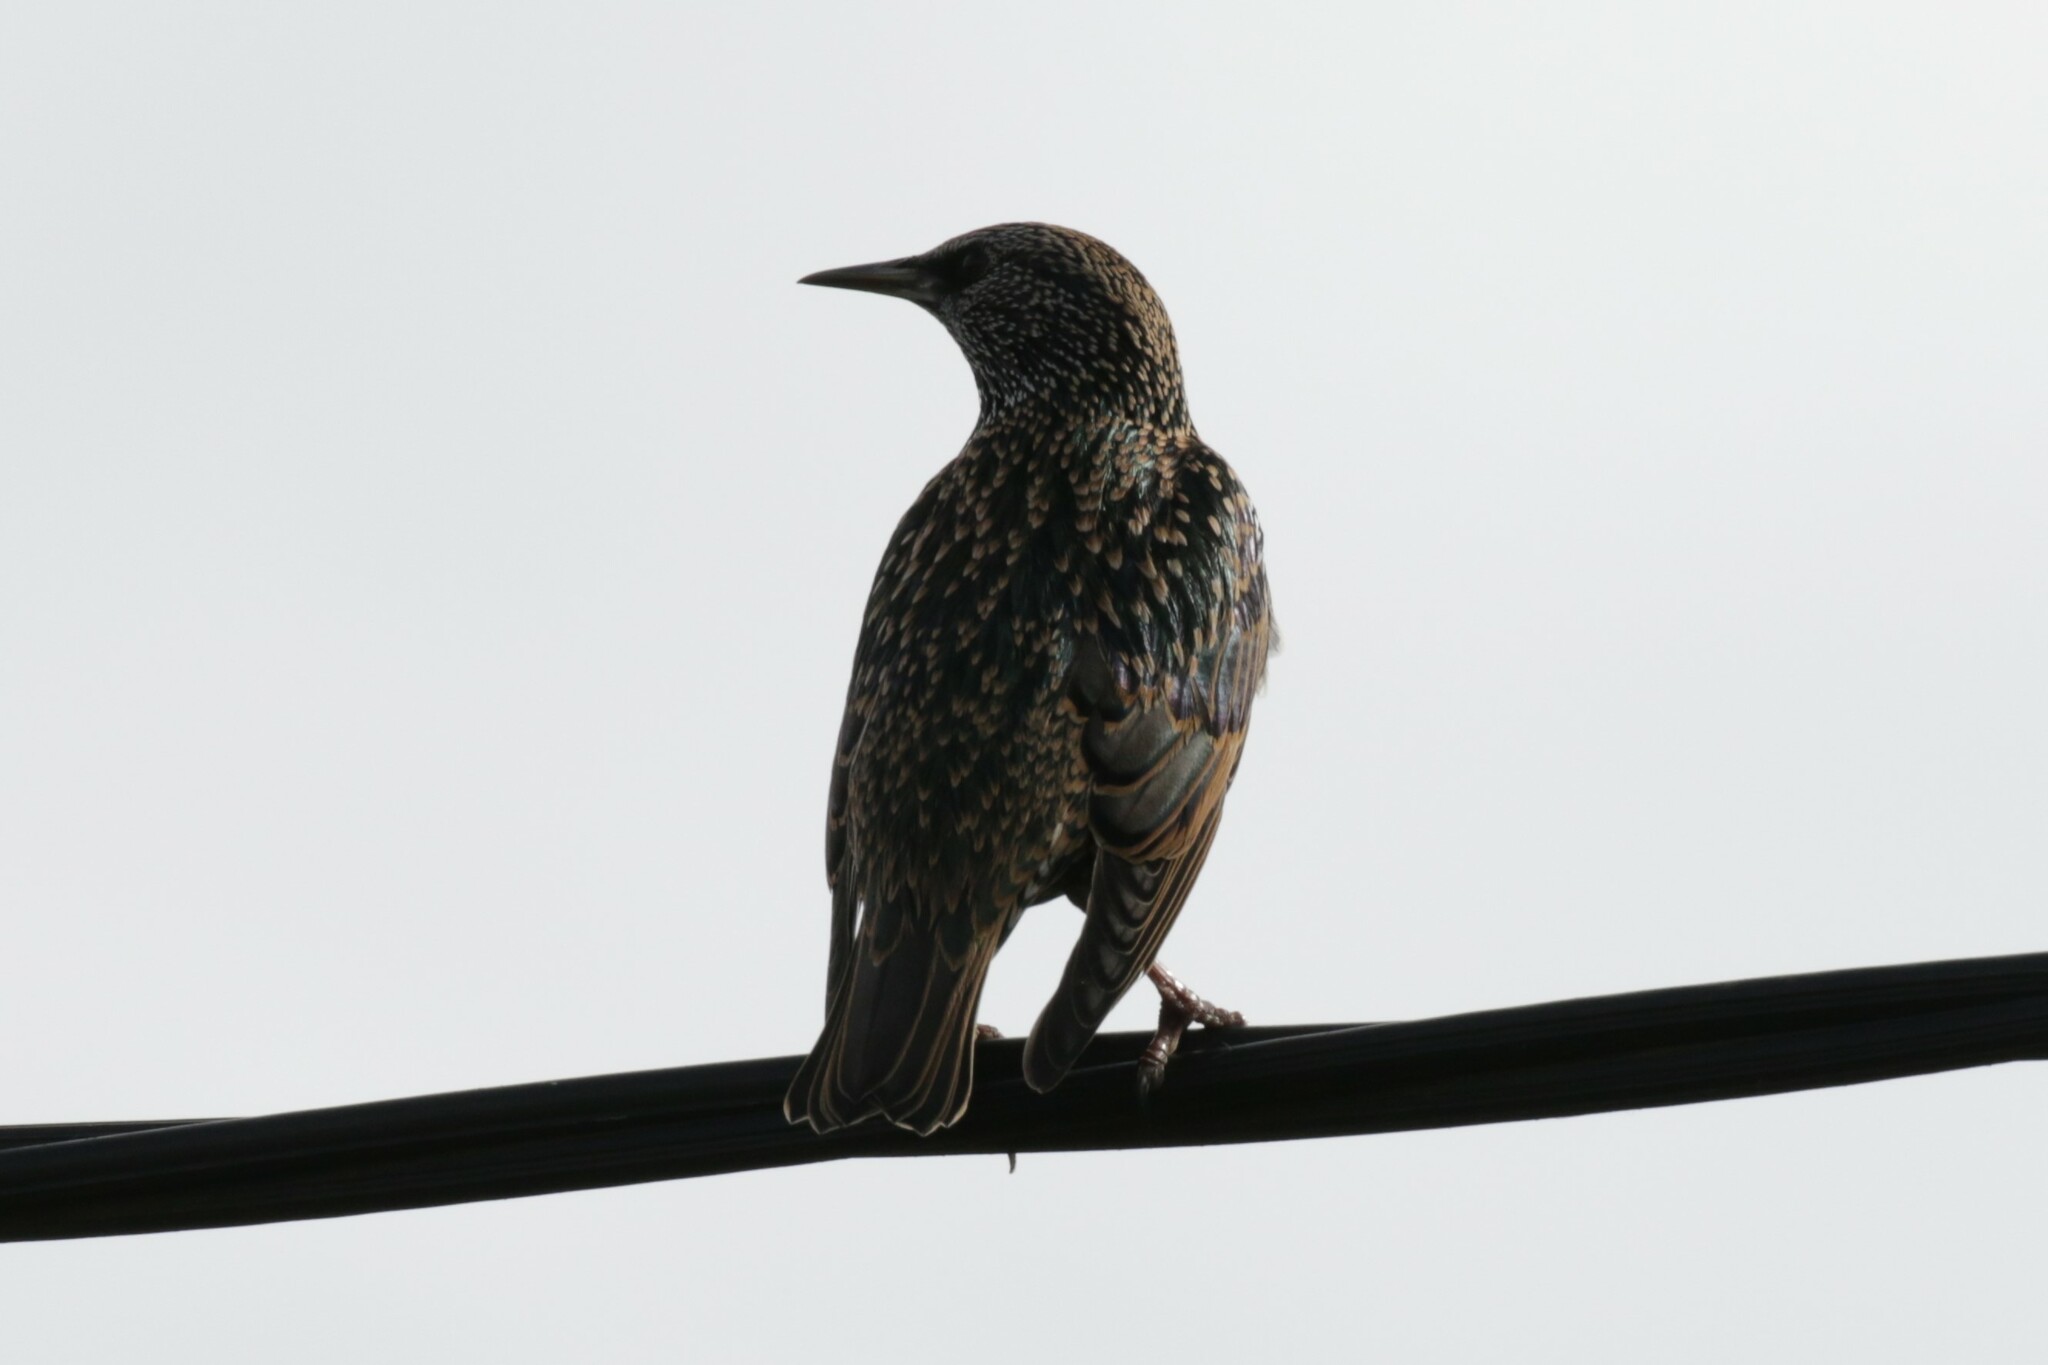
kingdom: Animalia
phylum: Chordata
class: Aves
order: Passeriformes
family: Sturnidae
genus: Sturnus
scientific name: Sturnus vulgaris
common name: Common starling
